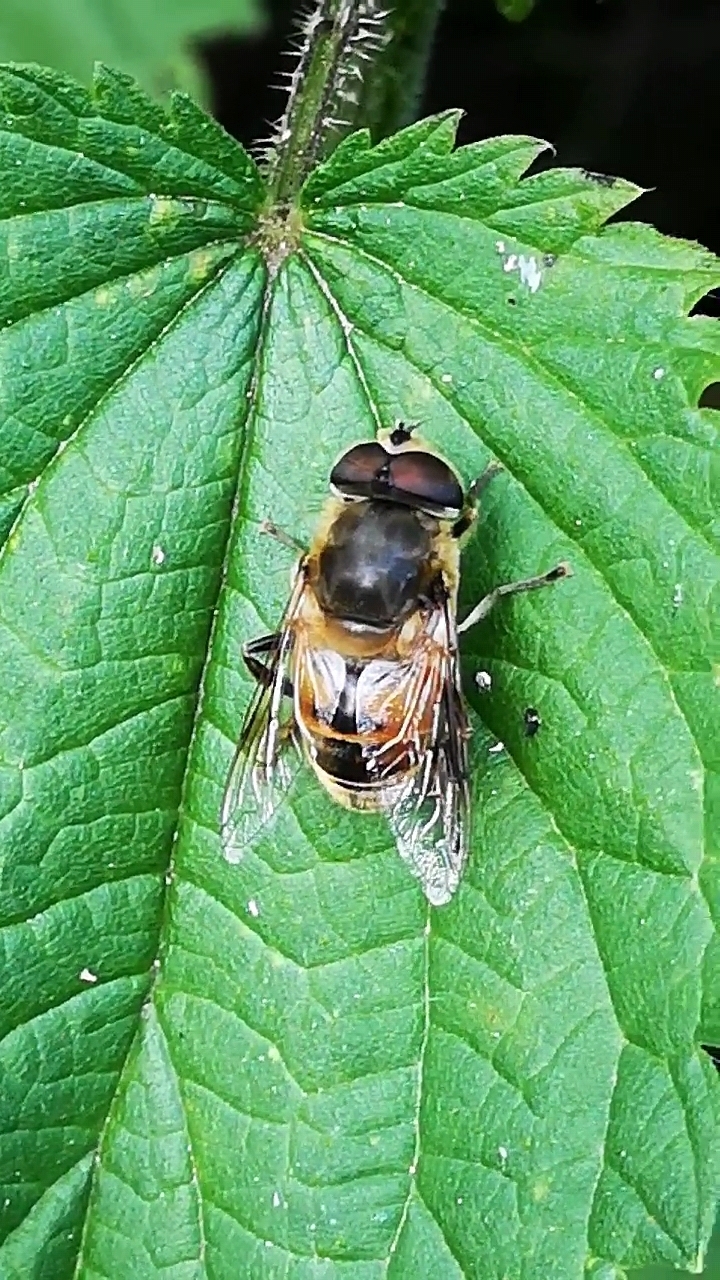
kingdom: Animalia
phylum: Arthropoda
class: Insecta
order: Diptera
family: Syrphidae
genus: Eristalis
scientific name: Eristalis tenax
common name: Drone fly
